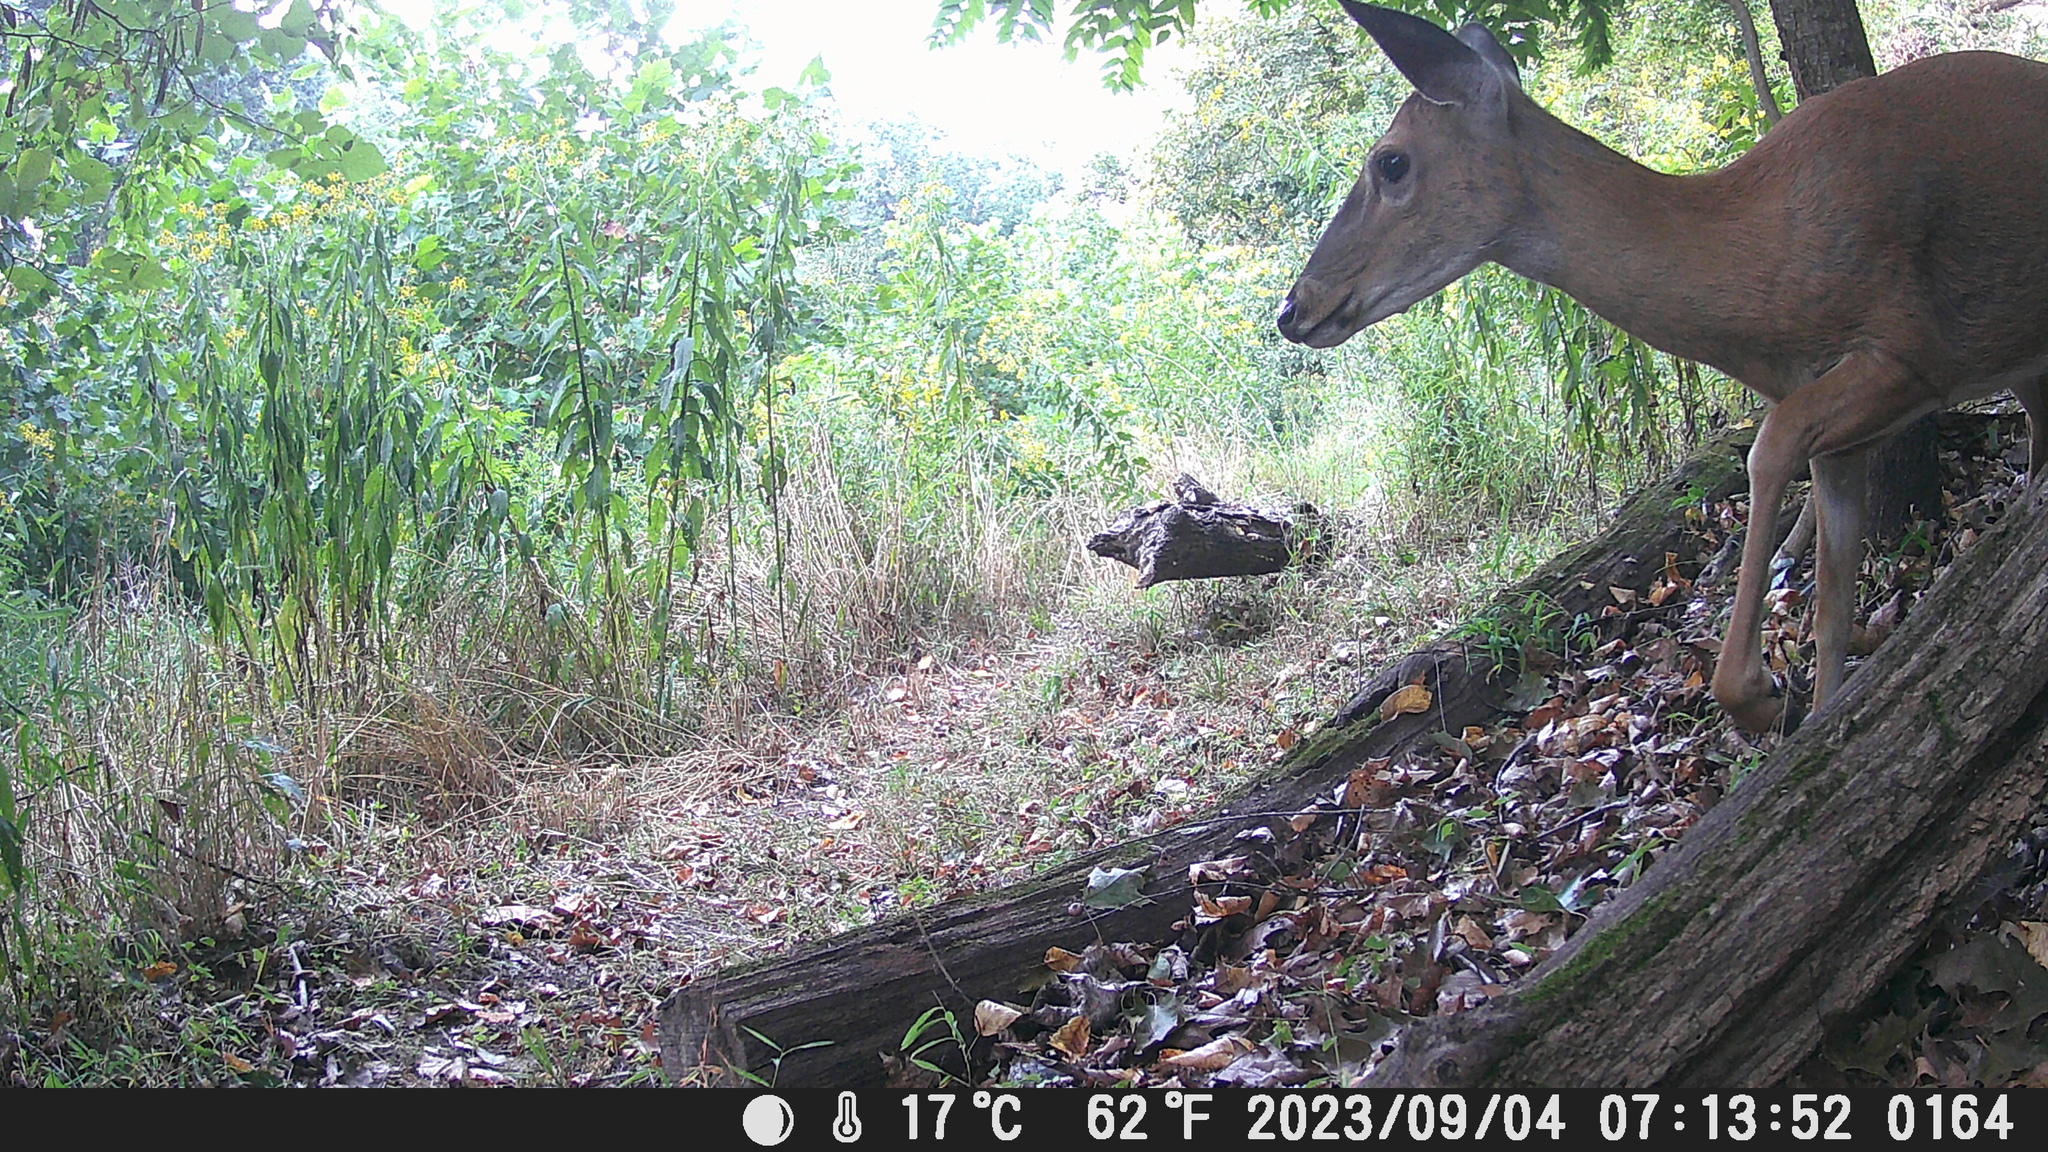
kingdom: Animalia
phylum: Chordata
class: Mammalia
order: Artiodactyla
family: Cervidae
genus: Odocoileus
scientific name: Odocoileus virginianus
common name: White-tailed deer
